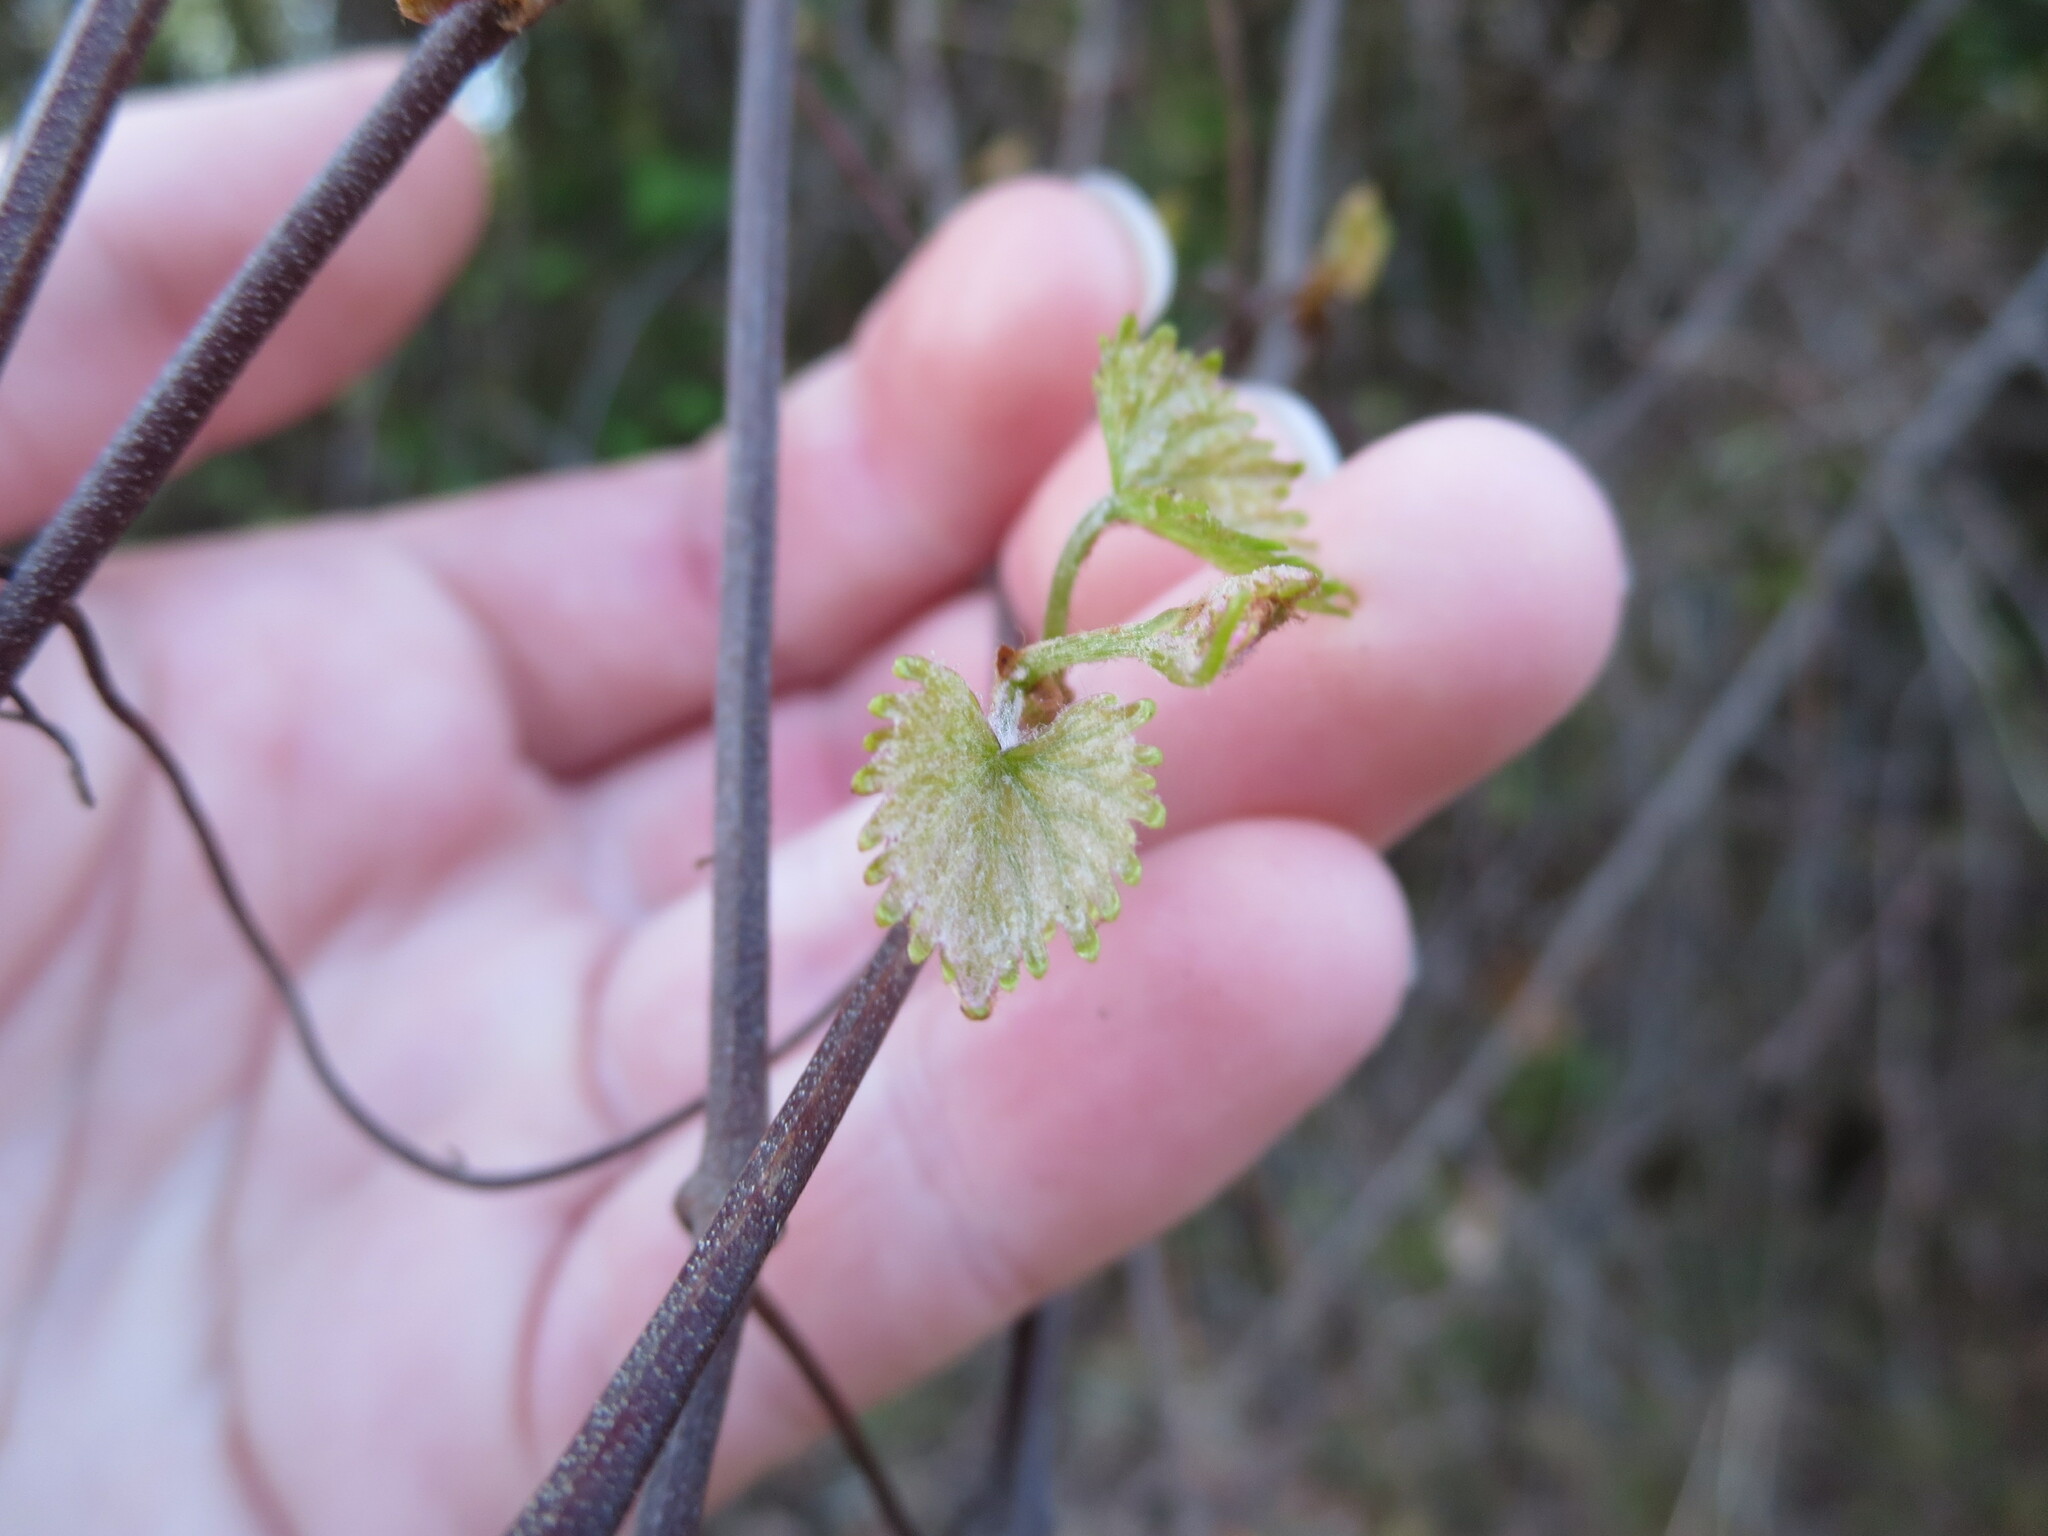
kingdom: Plantae
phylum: Tracheophyta
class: Magnoliopsida
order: Vitales
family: Vitaceae
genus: Vitis
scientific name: Vitis rotundifolia
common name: Muscadine grape
